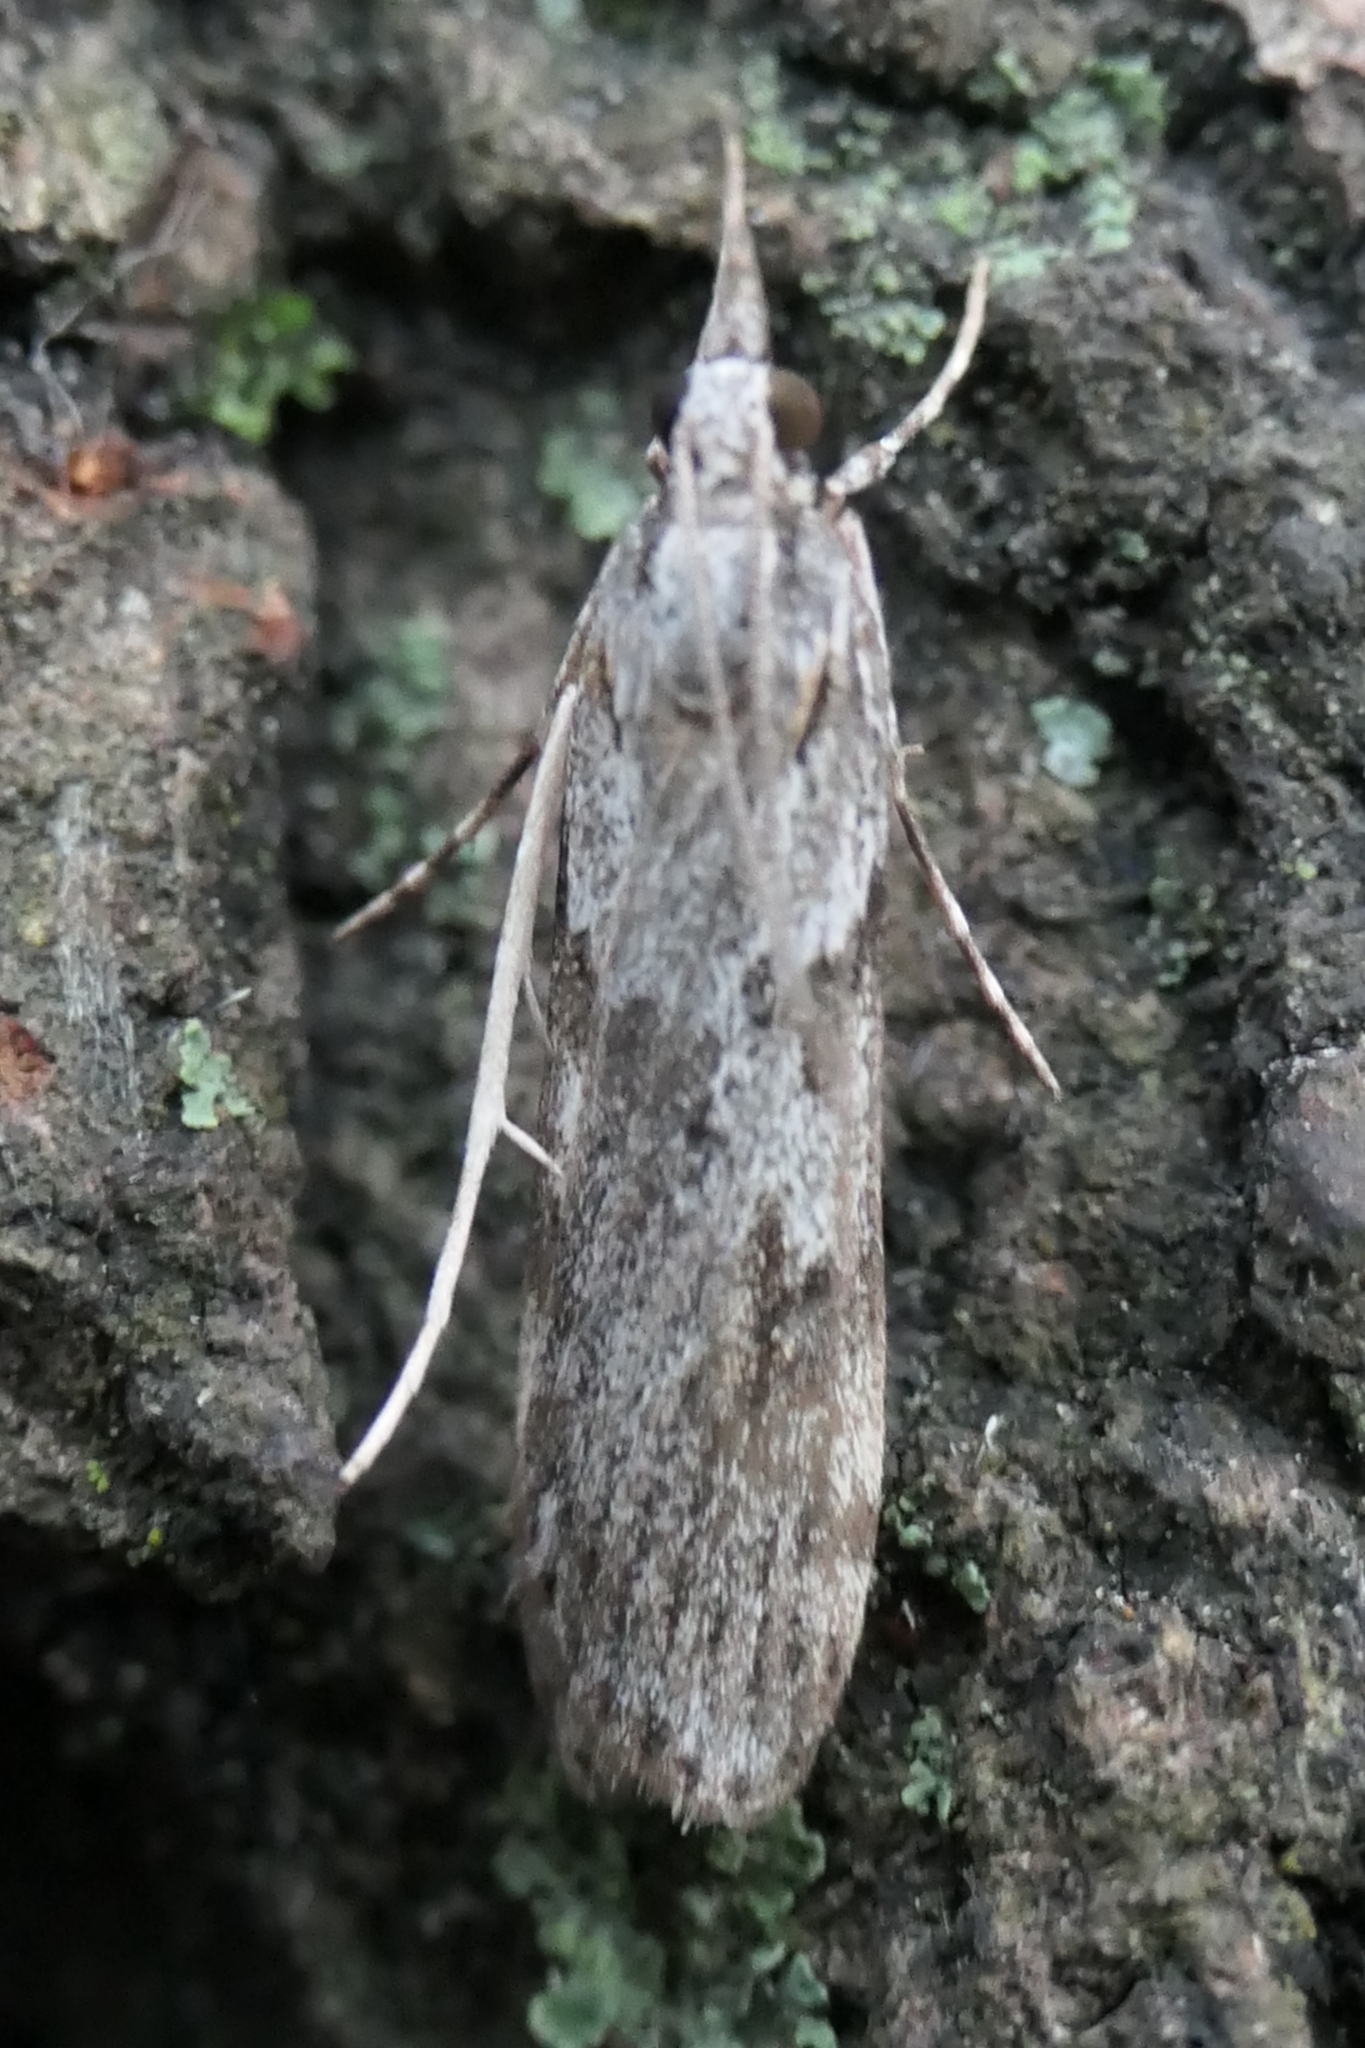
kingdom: Animalia
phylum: Arthropoda
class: Insecta
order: Lepidoptera
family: Crambidae
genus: Scoparia
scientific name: Scoparia halopis
